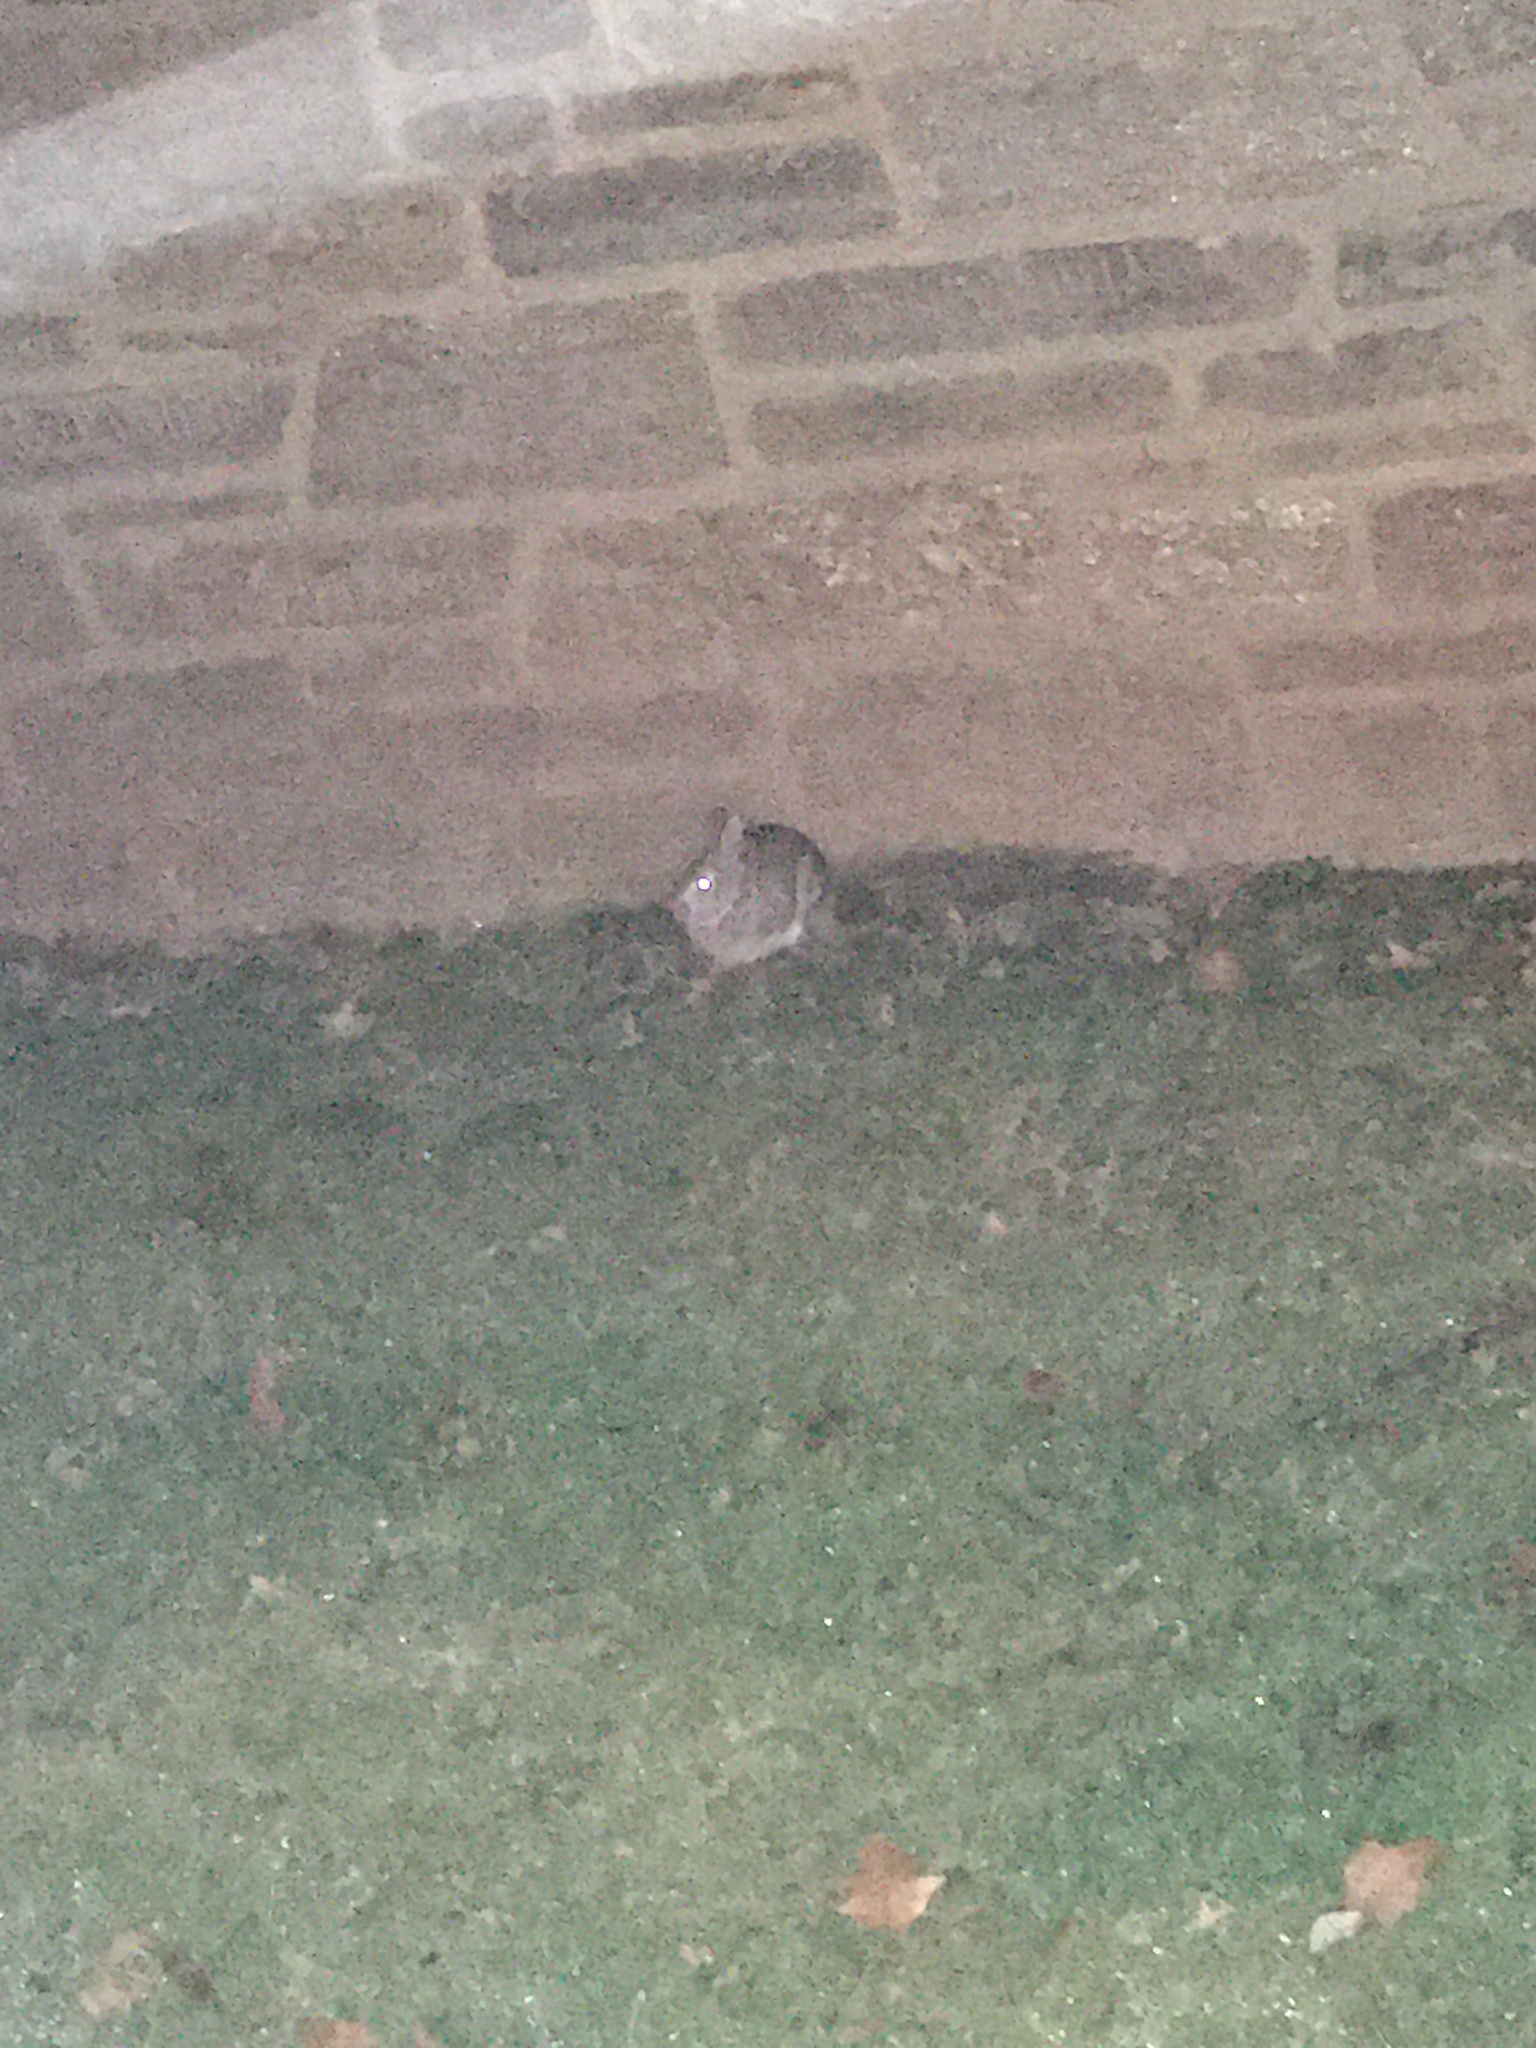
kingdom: Animalia
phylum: Chordata
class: Mammalia
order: Lagomorpha
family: Leporidae
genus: Sylvilagus
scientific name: Sylvilagus floridanus
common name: Eastern cottontail
